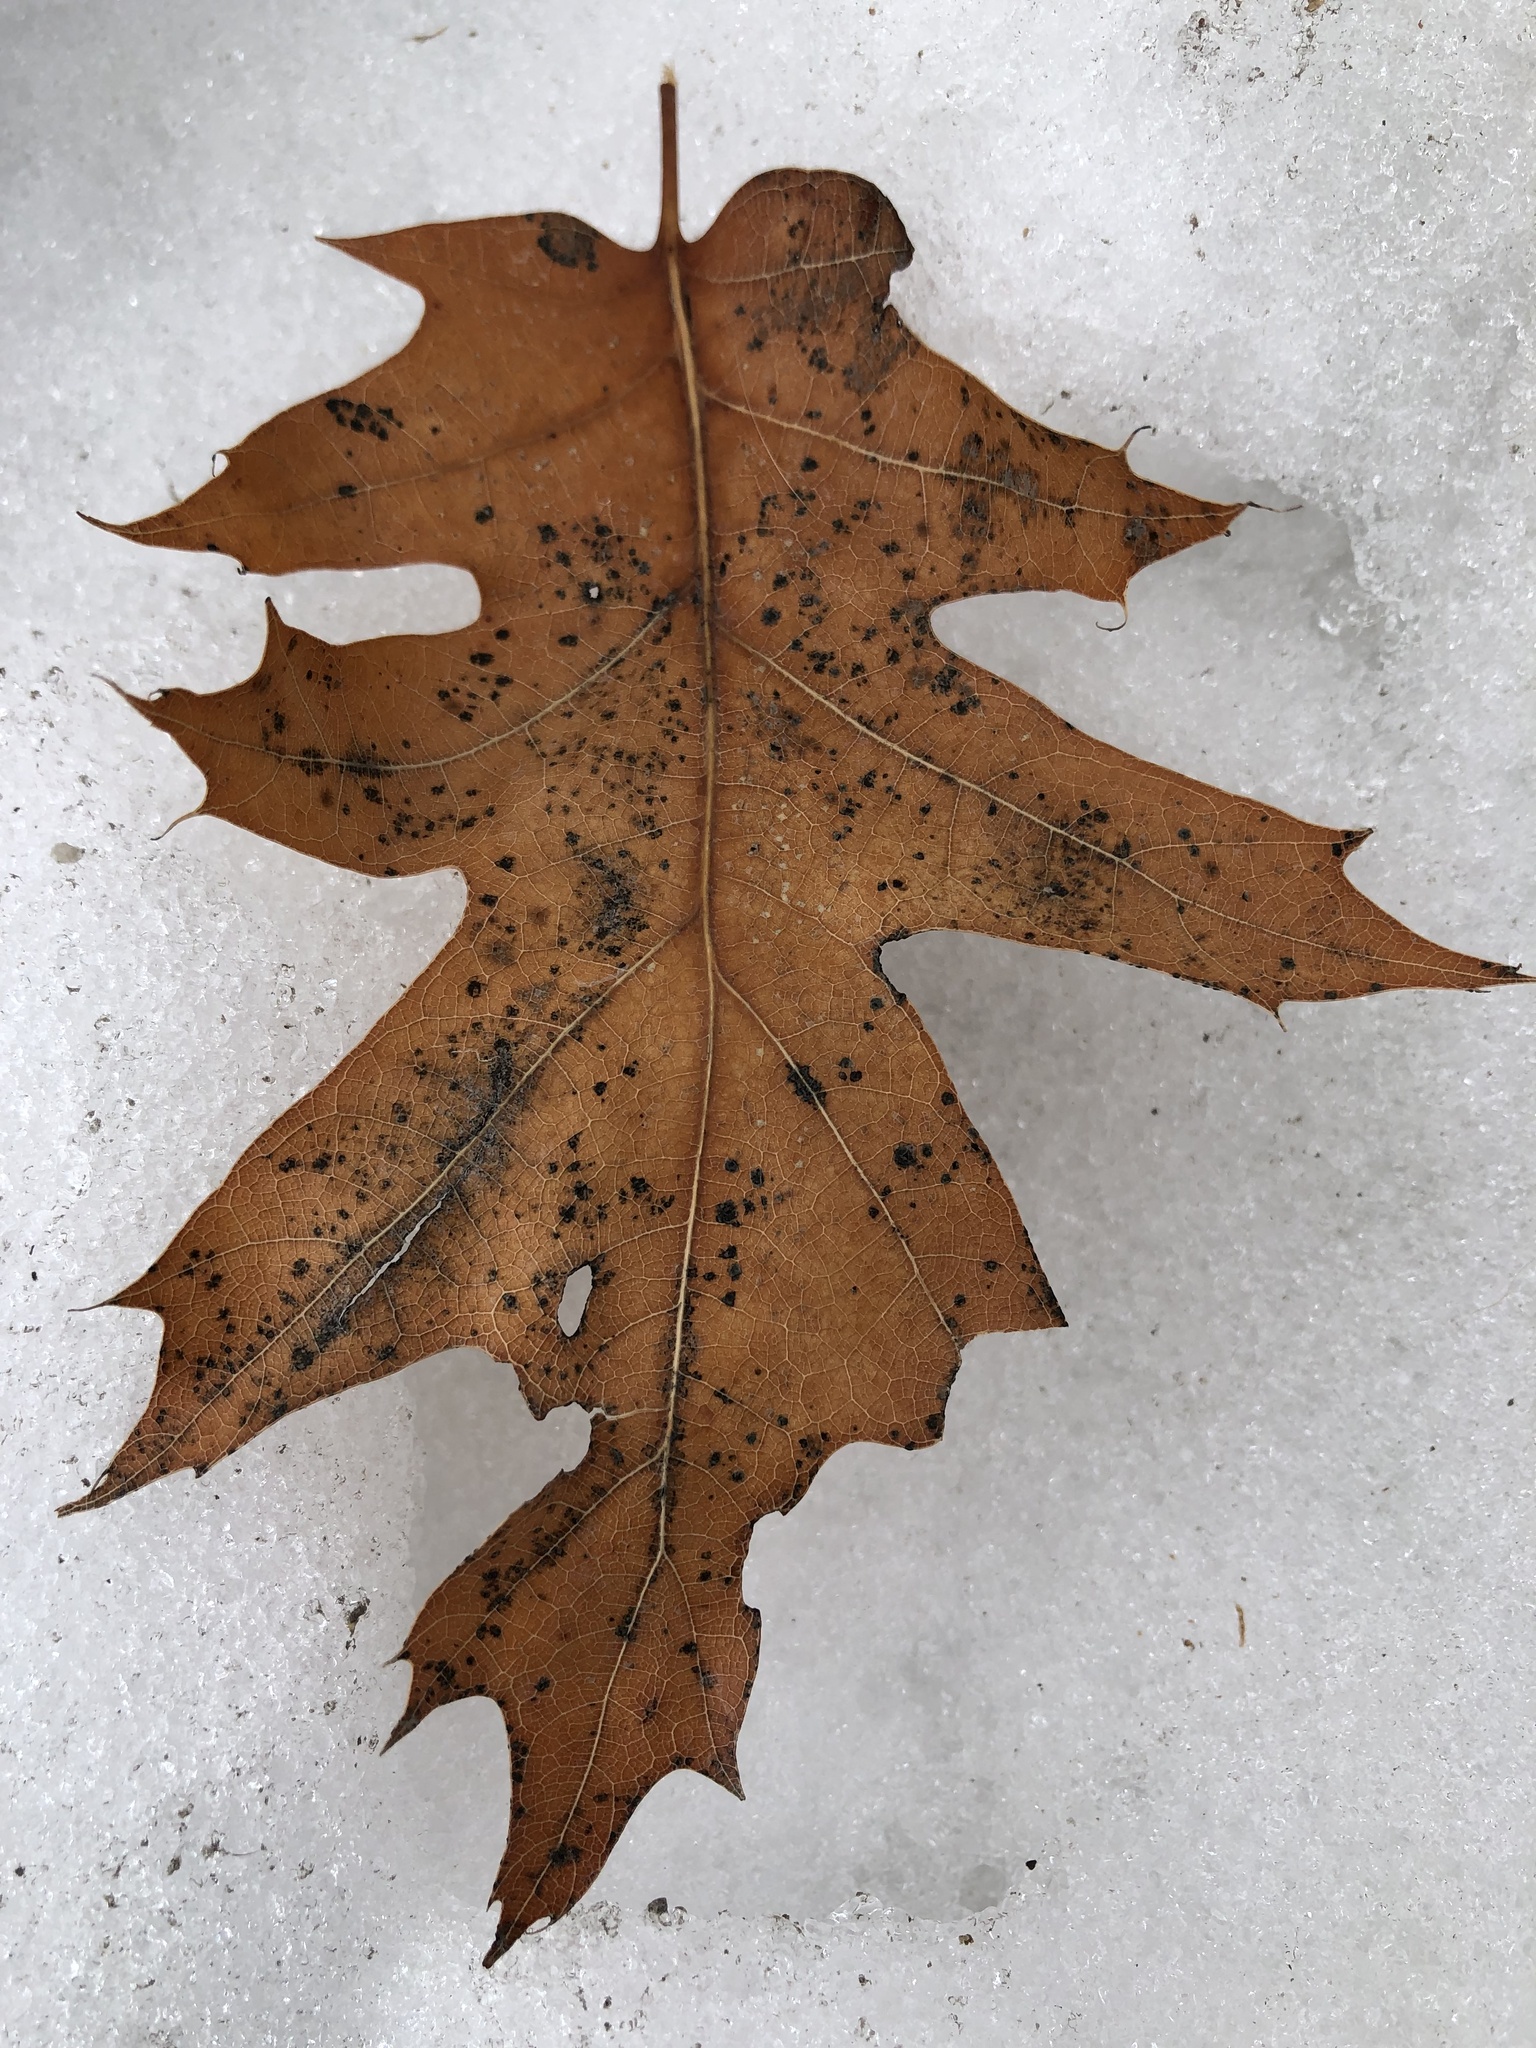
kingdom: Plantae
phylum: Tracheophyta
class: Magnoliopsida
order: Fagales
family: Fagaceae
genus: Quercus
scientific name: Quercus rubra
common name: Red oak
